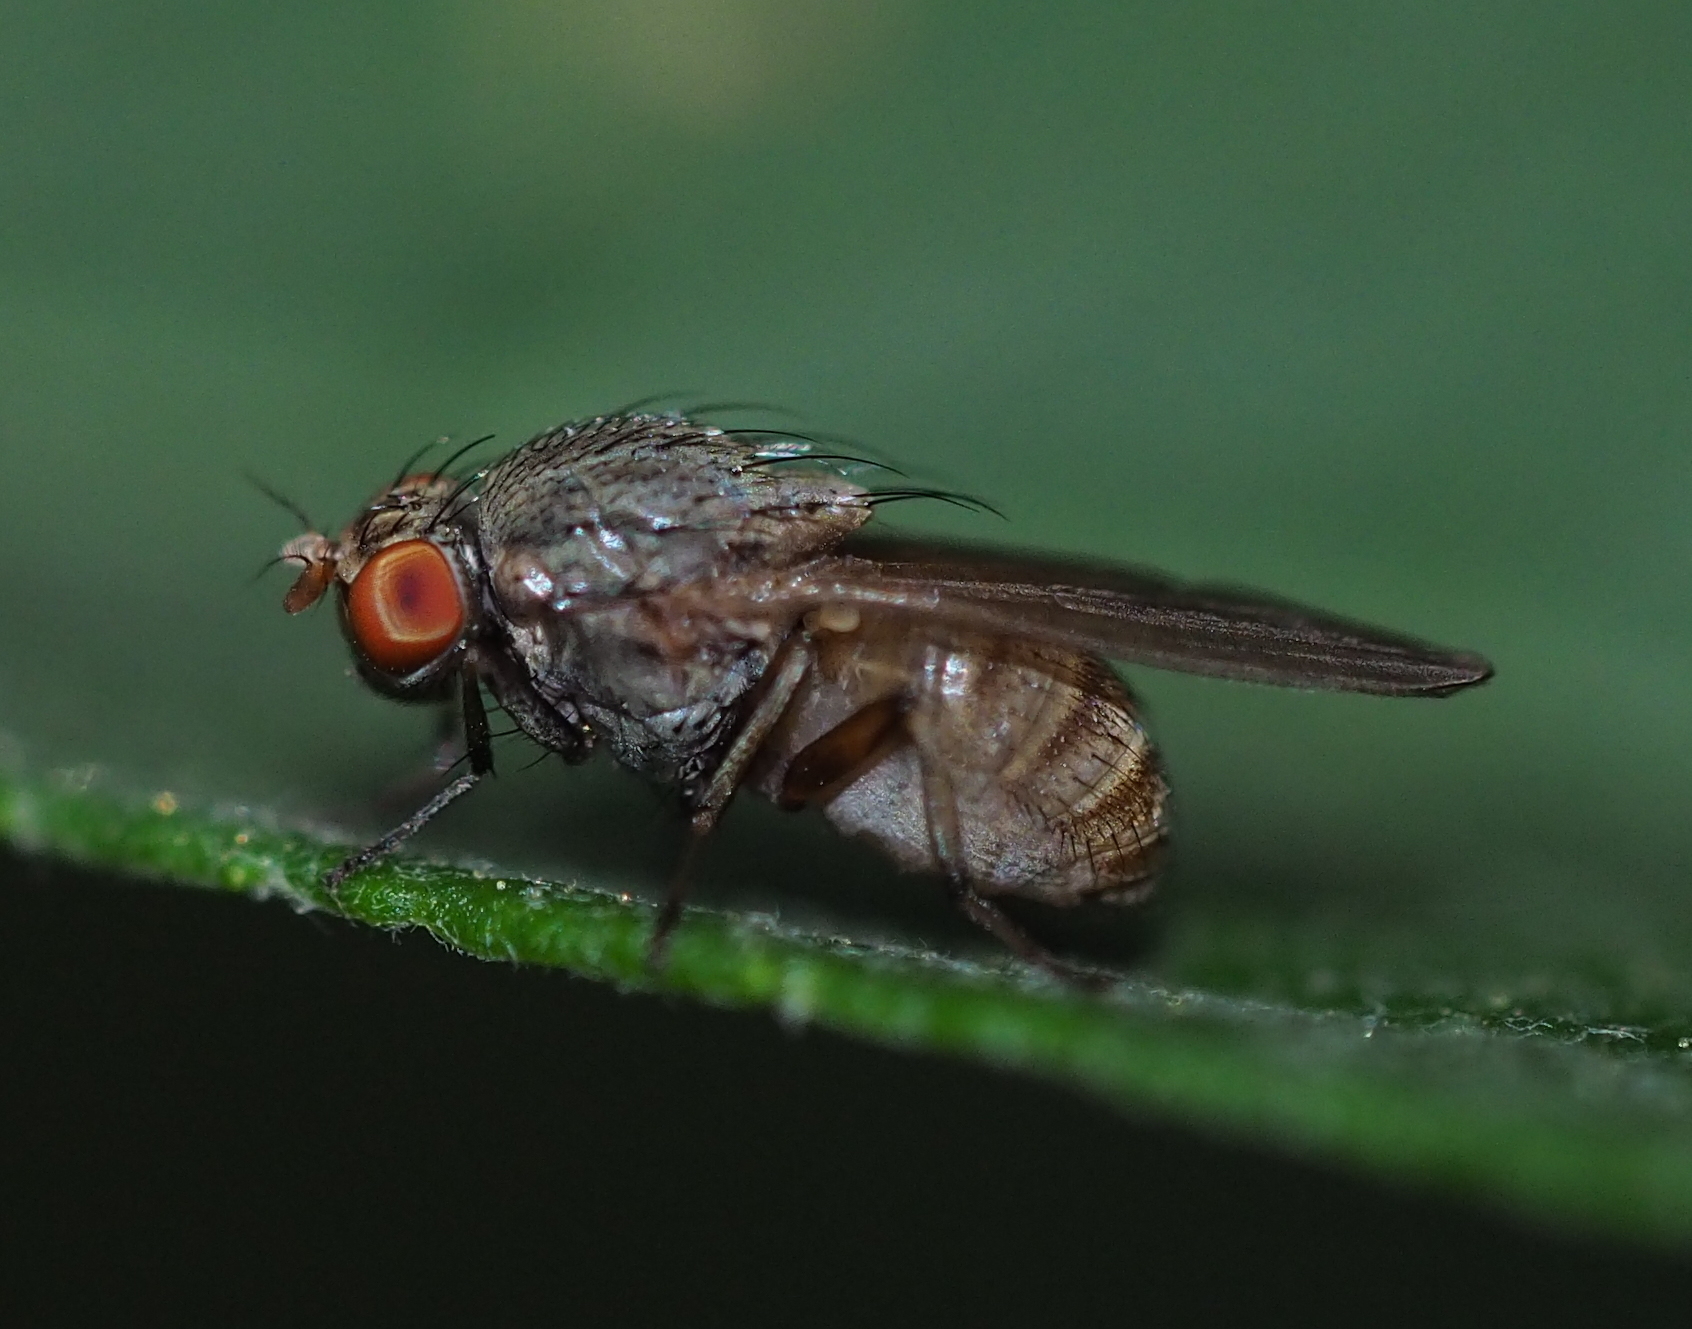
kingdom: Animalia
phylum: Arthropoda
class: Insecta
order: Diptera
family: Lauxaniidae
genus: Minettia
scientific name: Minettia fasciata
